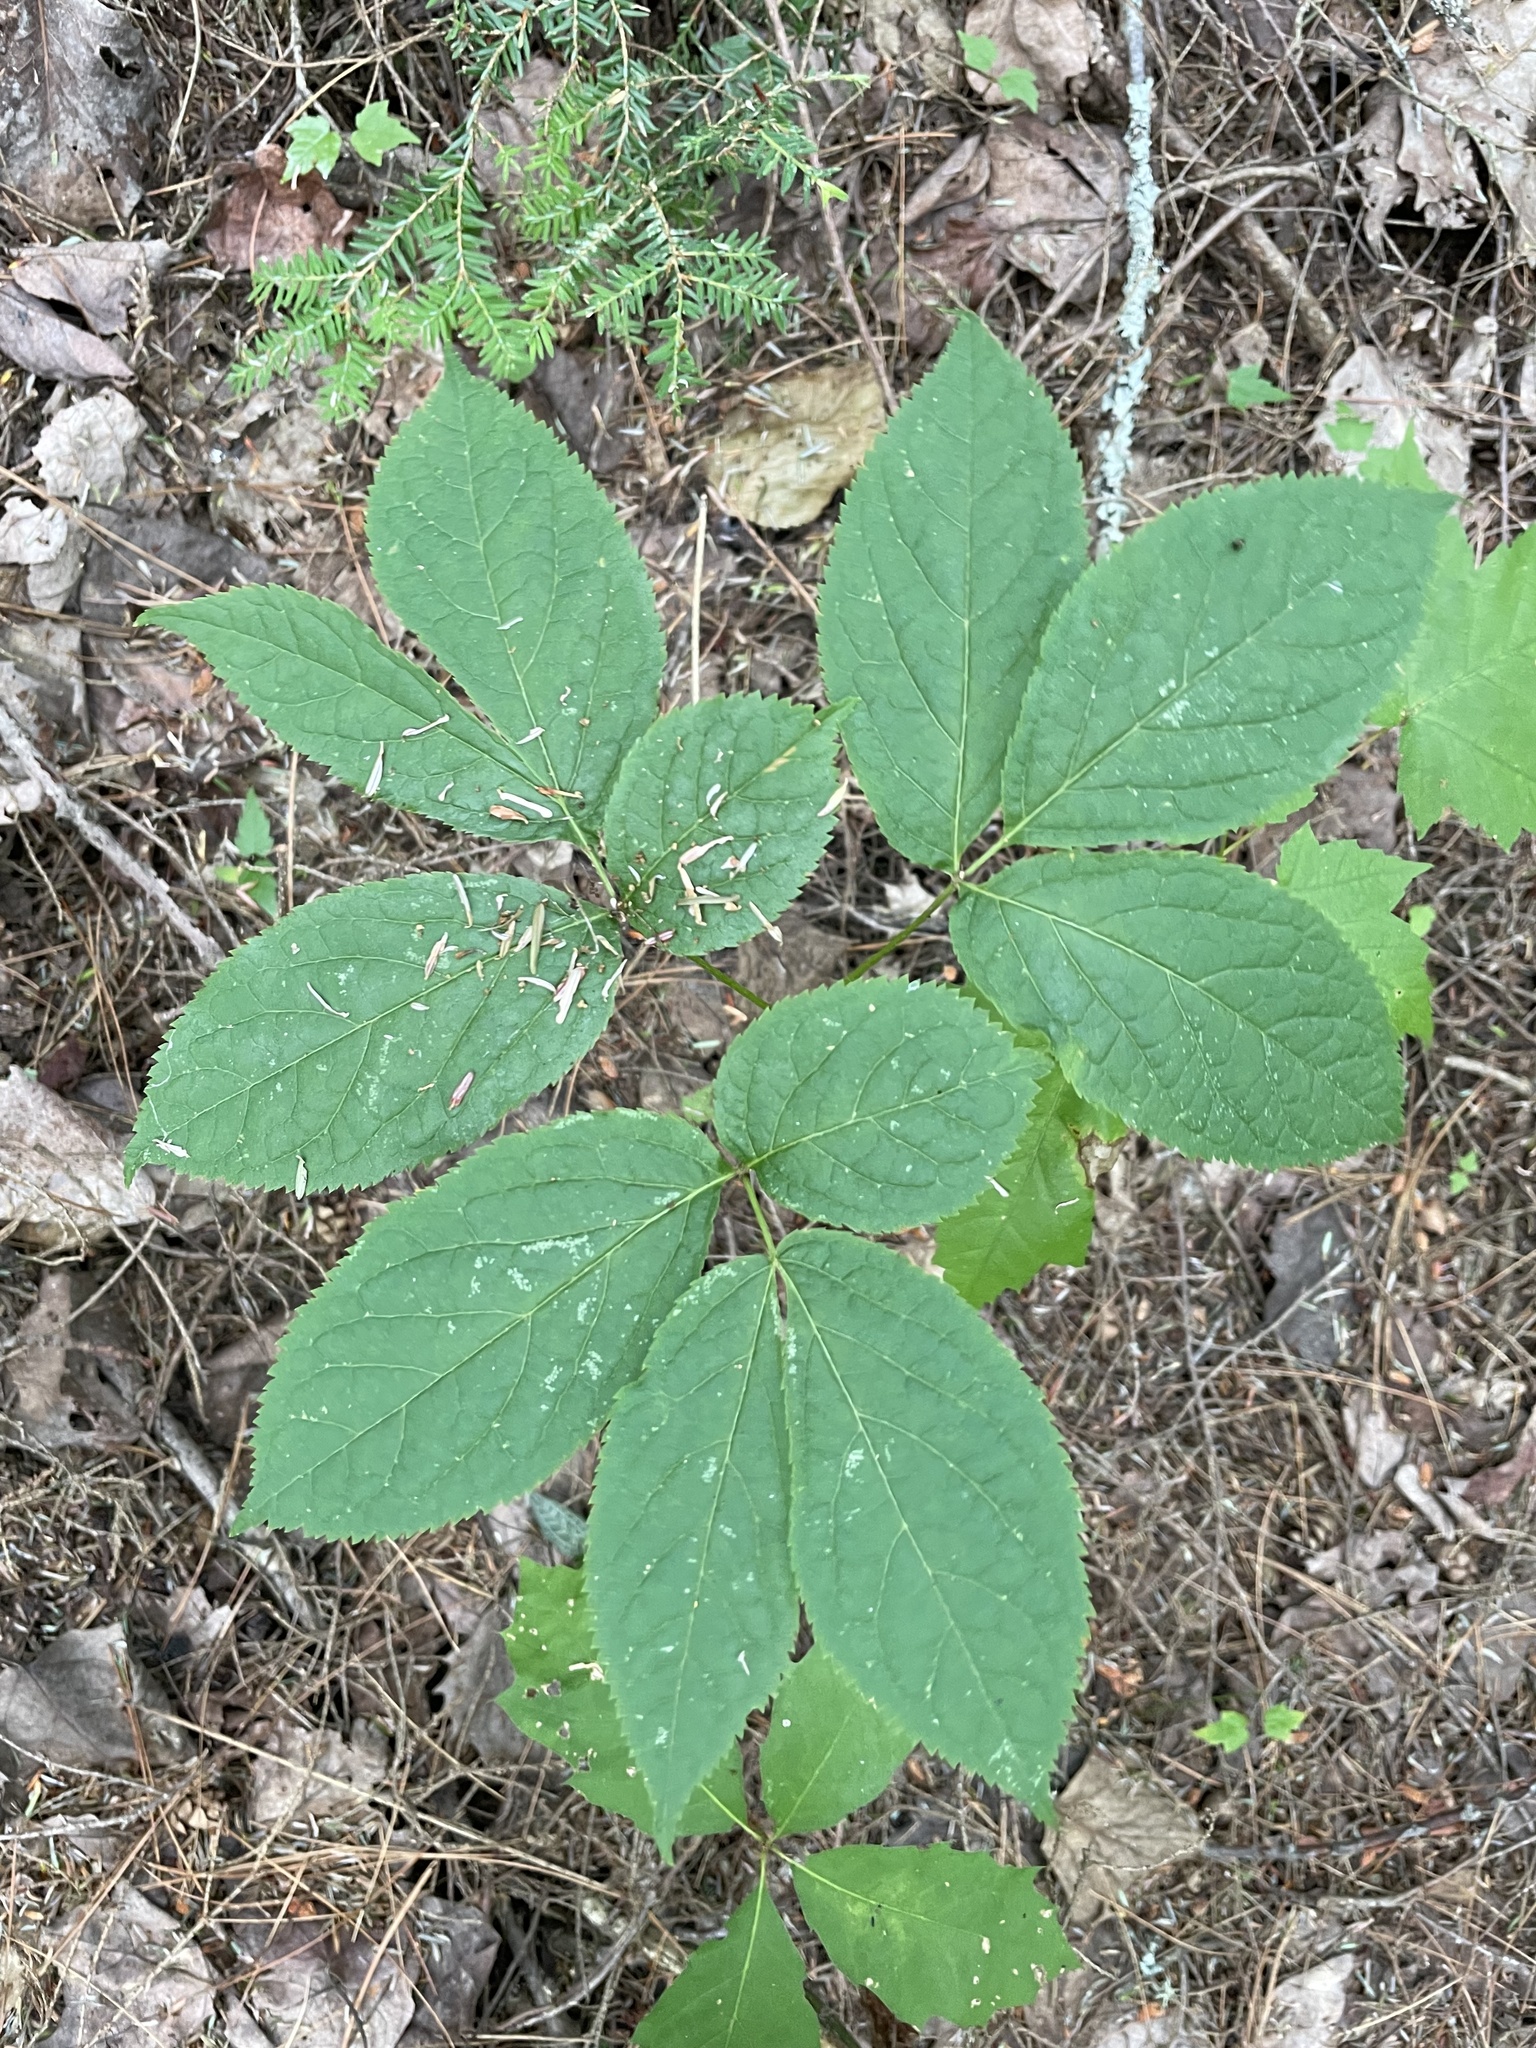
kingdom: Plantae
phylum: Tracheophyta
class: Magnoliopsida
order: Apiales
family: Araliaceae
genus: Aralia
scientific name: Aralia nudicaulis
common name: Wild sarsaparilla
